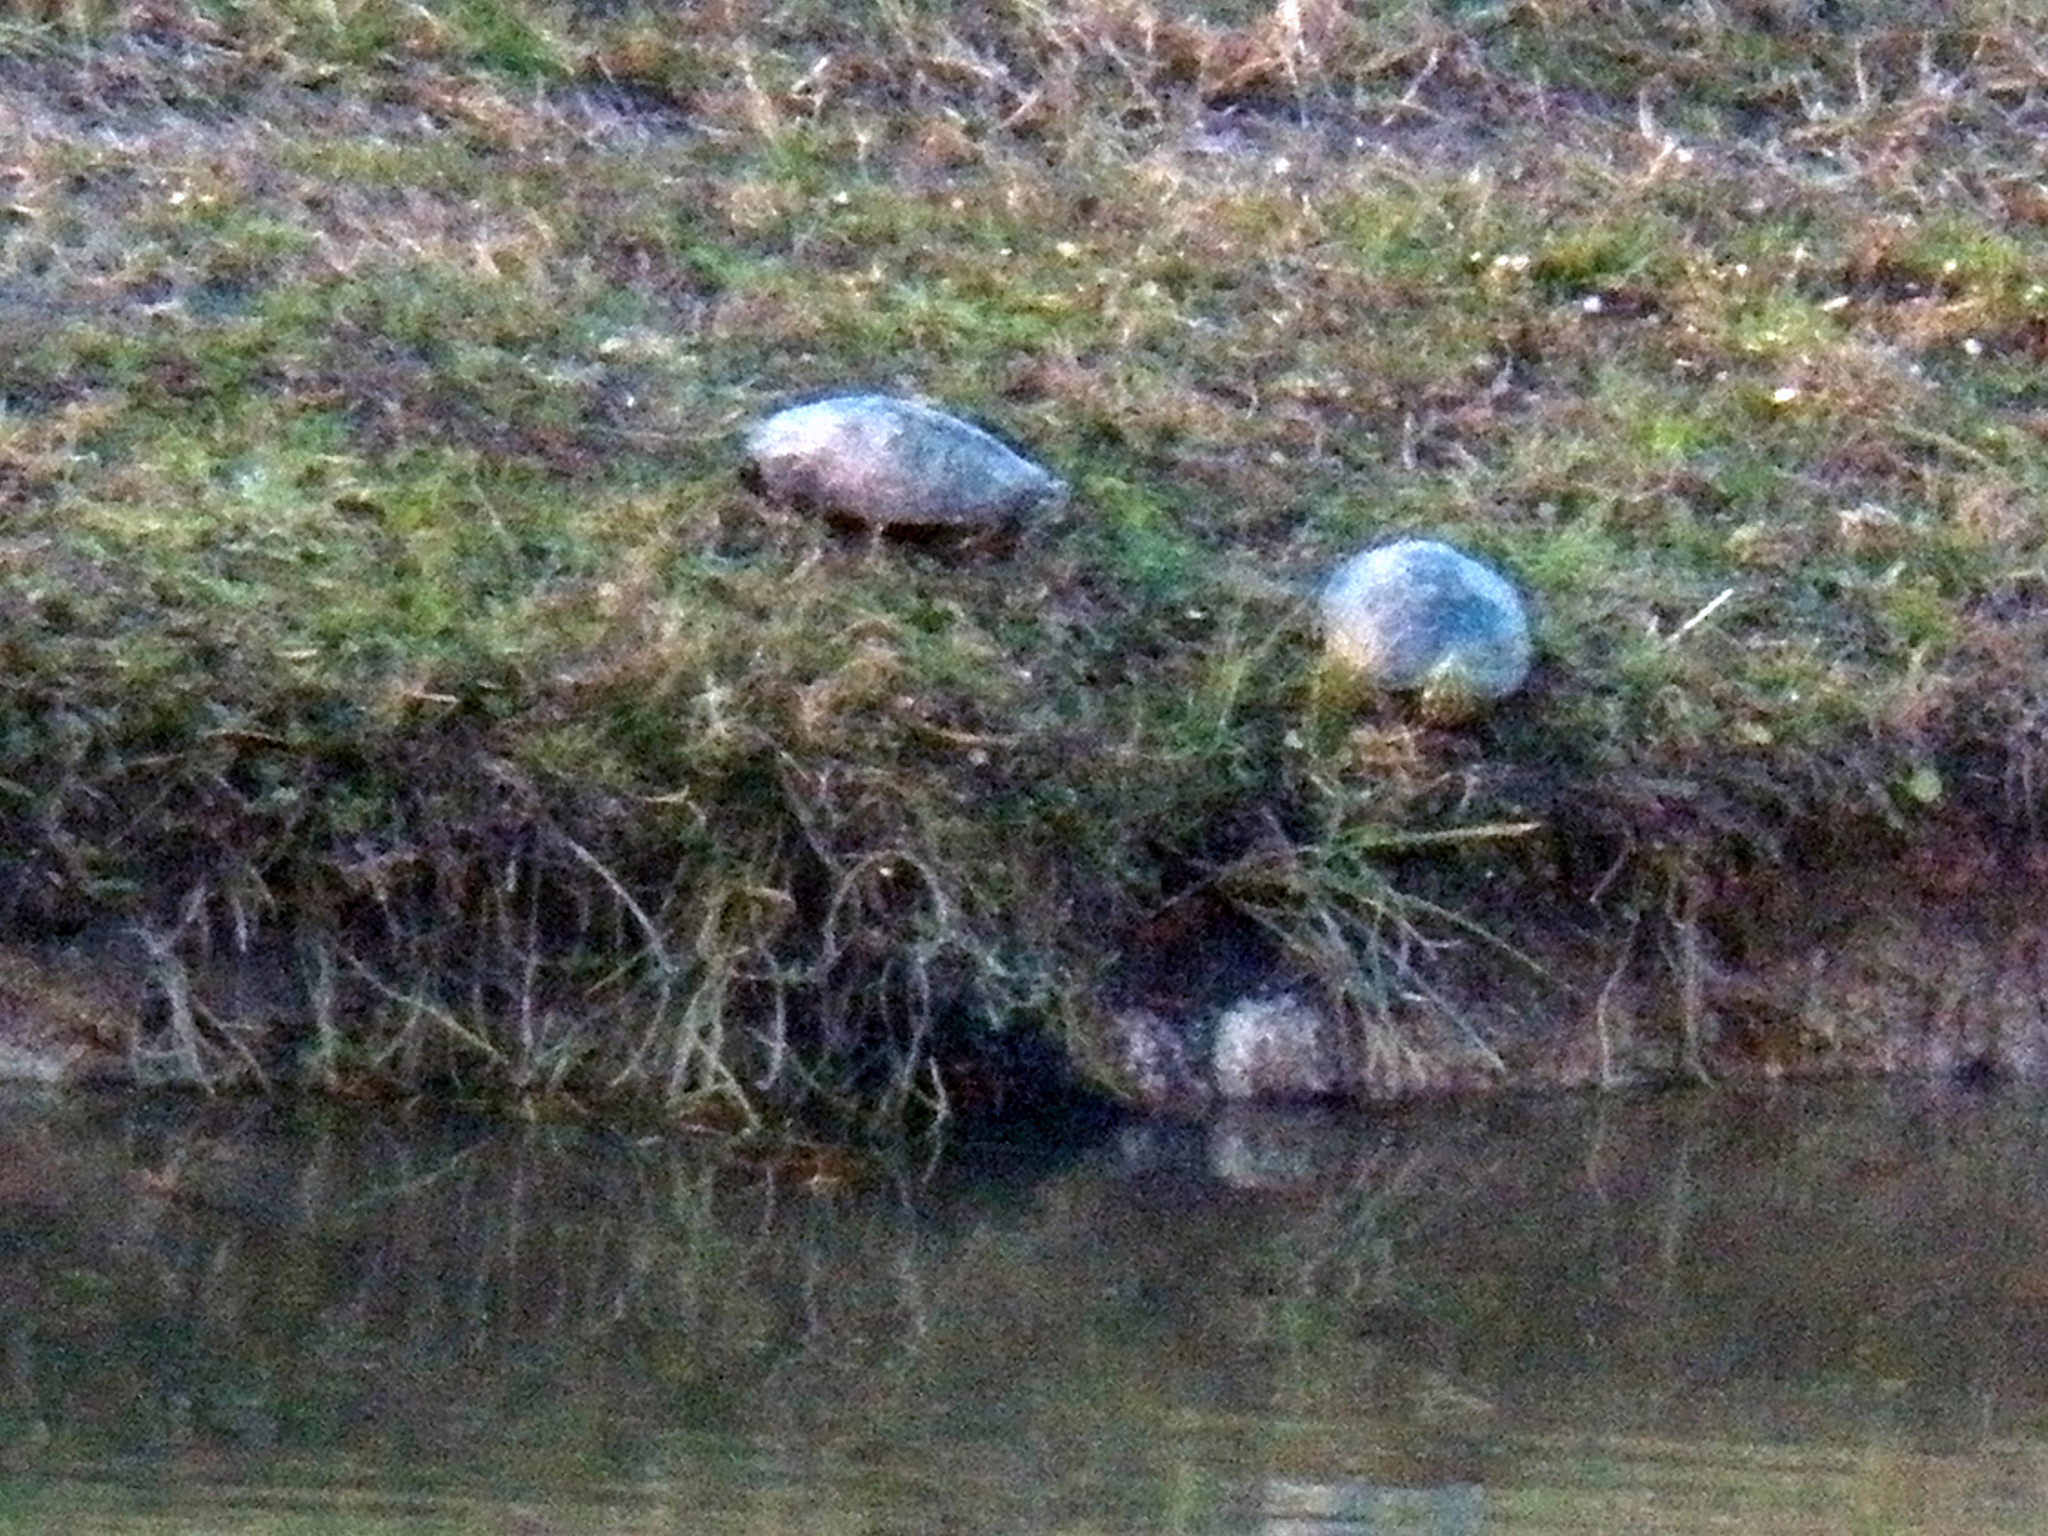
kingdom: Animalia
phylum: Chordata
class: Testudines
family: Emydidae
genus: Trachemys
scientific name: Trachemys scripta
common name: Slider
